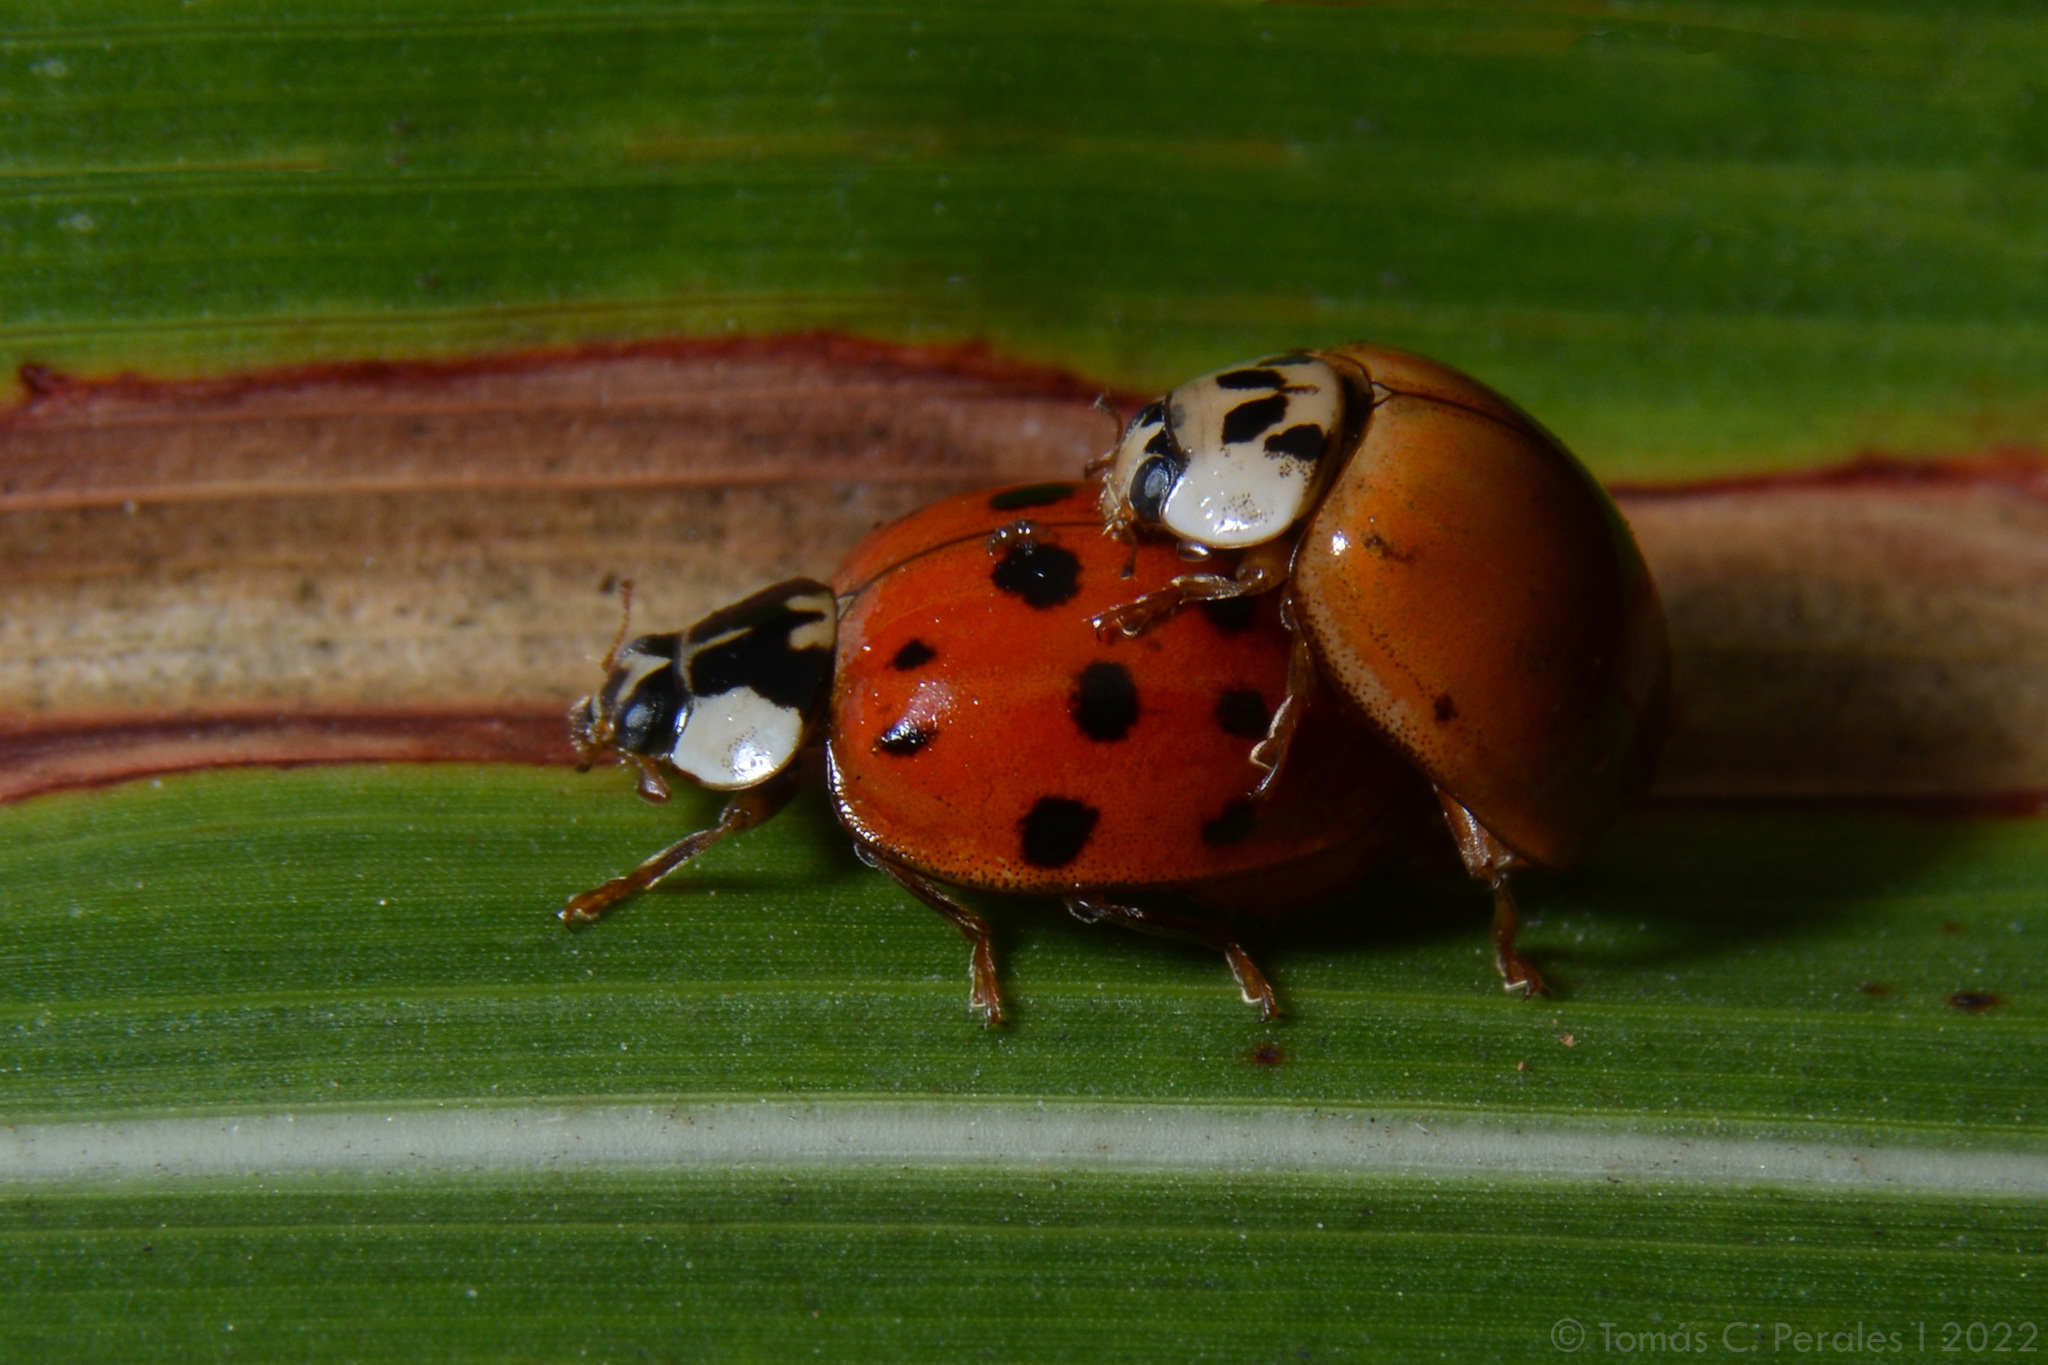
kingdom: Animalia
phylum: Arthropoda
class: Insecta
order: Coleoptera
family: Coccinellidae
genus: Harmonia
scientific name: Harmonia axyridis
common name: Harlequin ladybird
